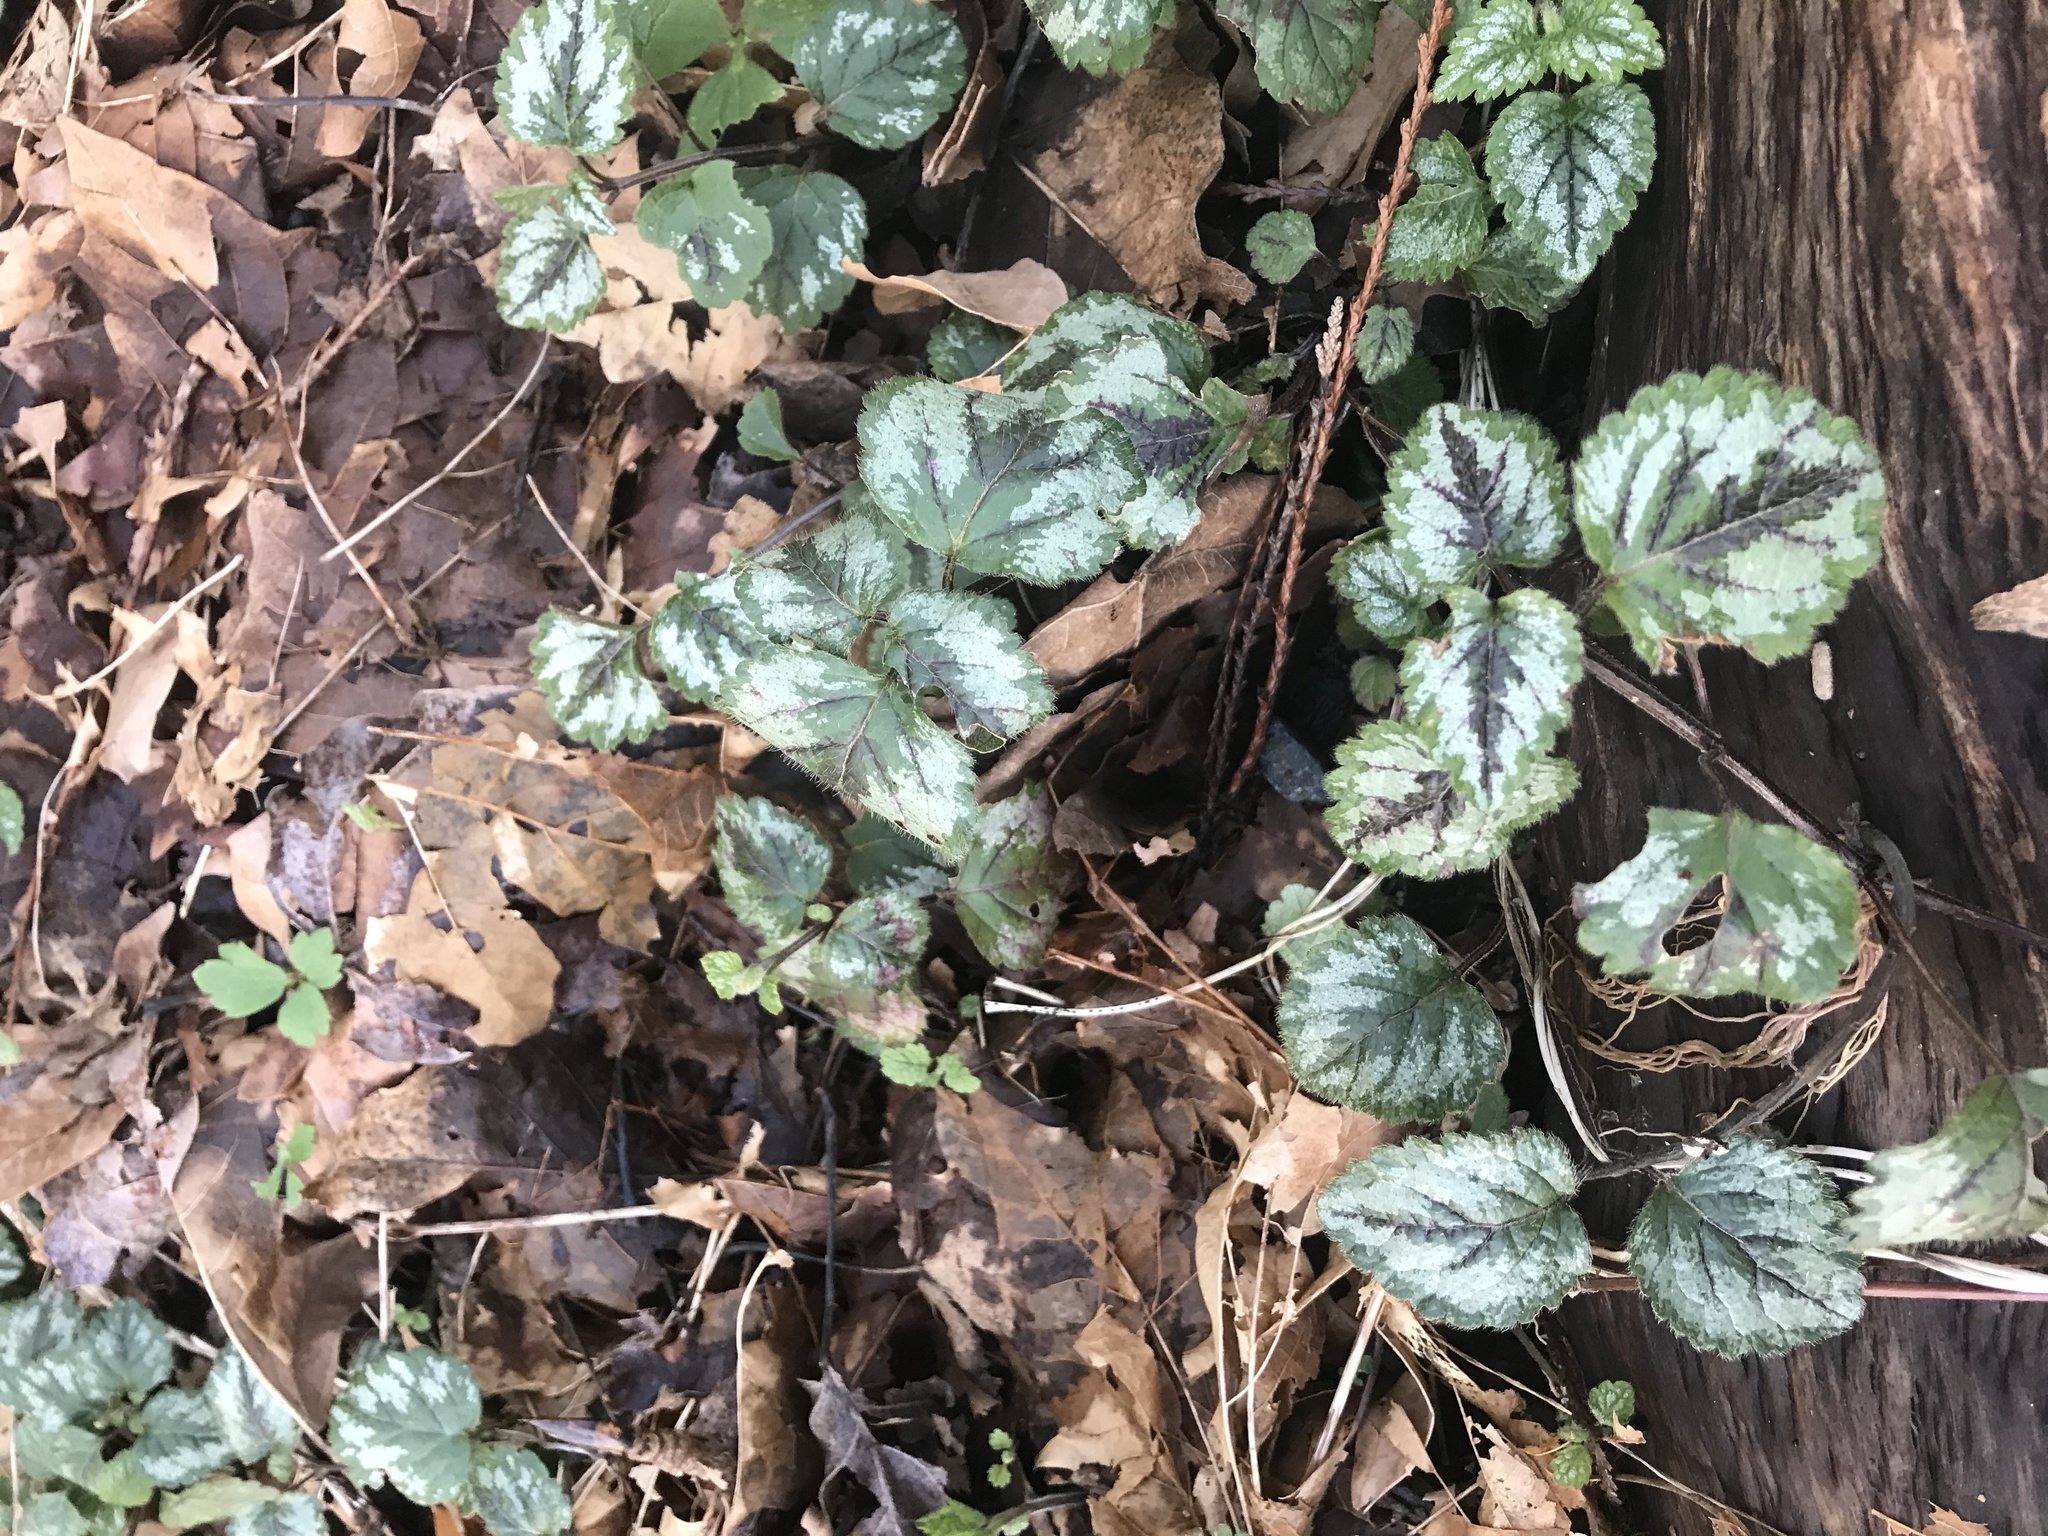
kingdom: Plantae
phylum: Tracheophyta
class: Magnoliopsida
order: Lamiales
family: Lamiaceae
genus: Lamium
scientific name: Lamium galeobdolon
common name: Yellow archangel
